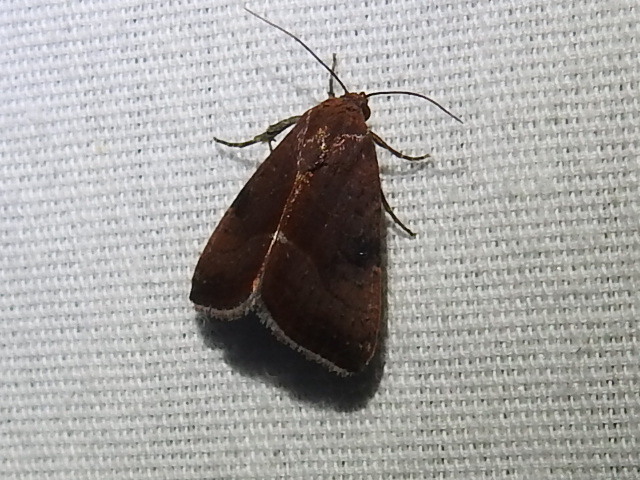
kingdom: Animalia
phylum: Arthropoda
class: Insecta
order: Lepidoptera
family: Noctuidae
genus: Galgula
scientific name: Galgula partita
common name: Wedgeling
